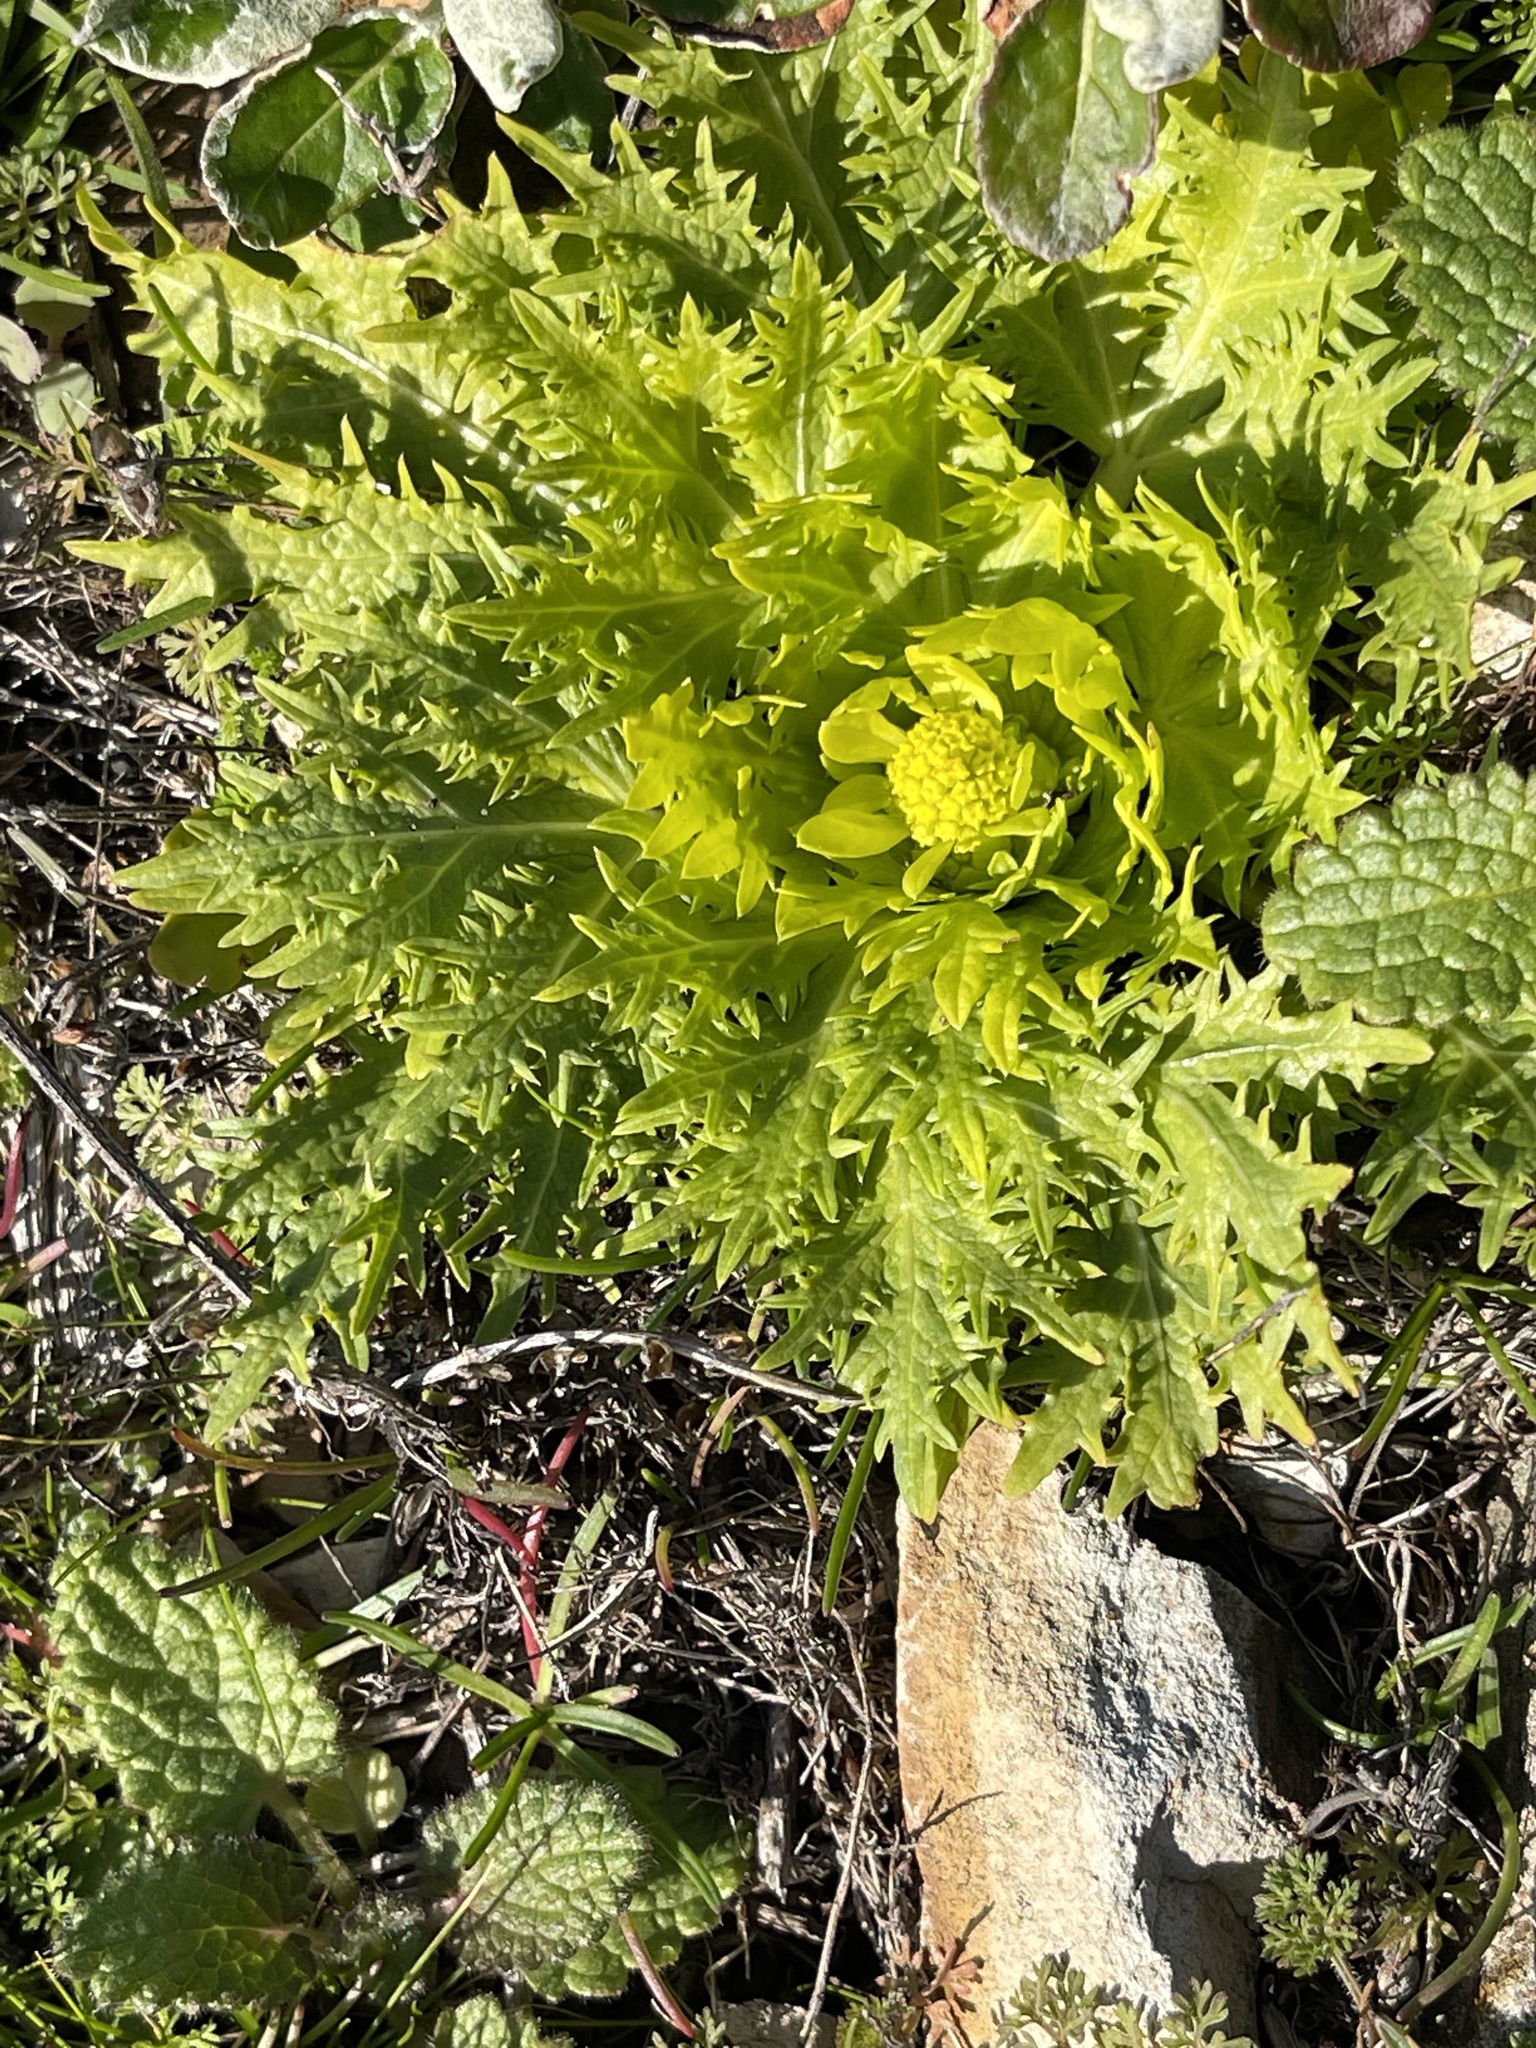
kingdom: Plantae
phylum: Tracheophyta
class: Magnoliopsida
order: Apiales
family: Apiaceae
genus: Sanicula
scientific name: Sanicula arctopoides
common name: Footsteps-of-spring
